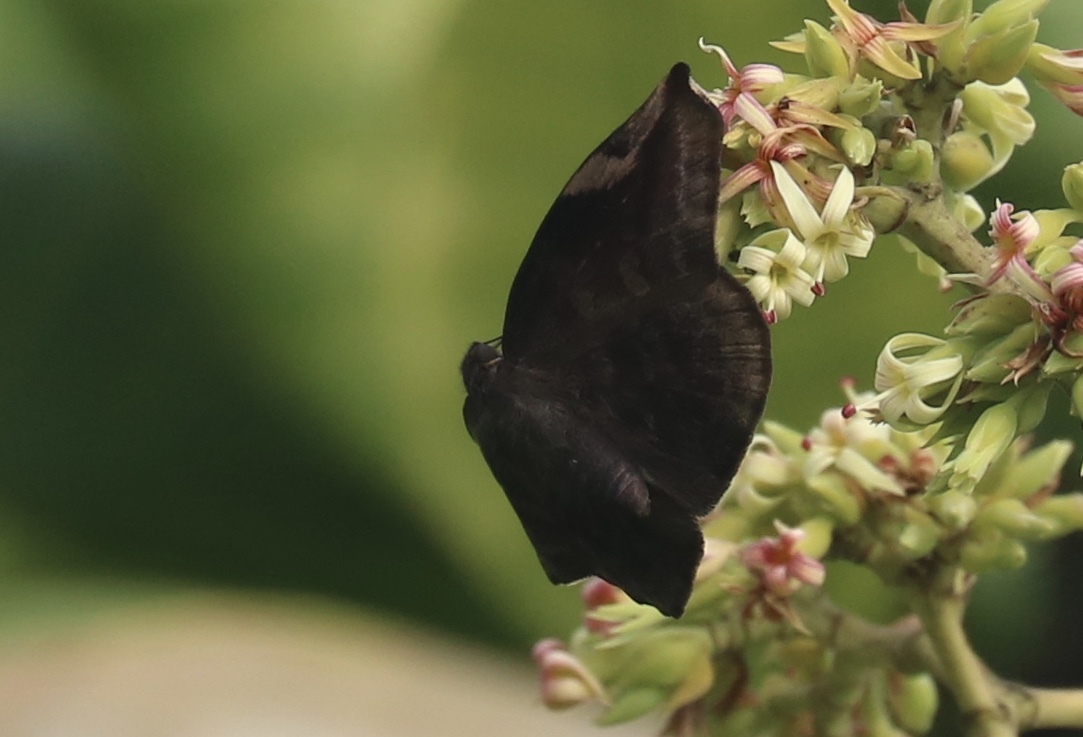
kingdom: Animalia
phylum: Arthropoda
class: Insecta
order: Lepidoptera
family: Hesperiidae
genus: Achlyodes
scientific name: Achlyodes thraso
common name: Sickle-winged skipper
